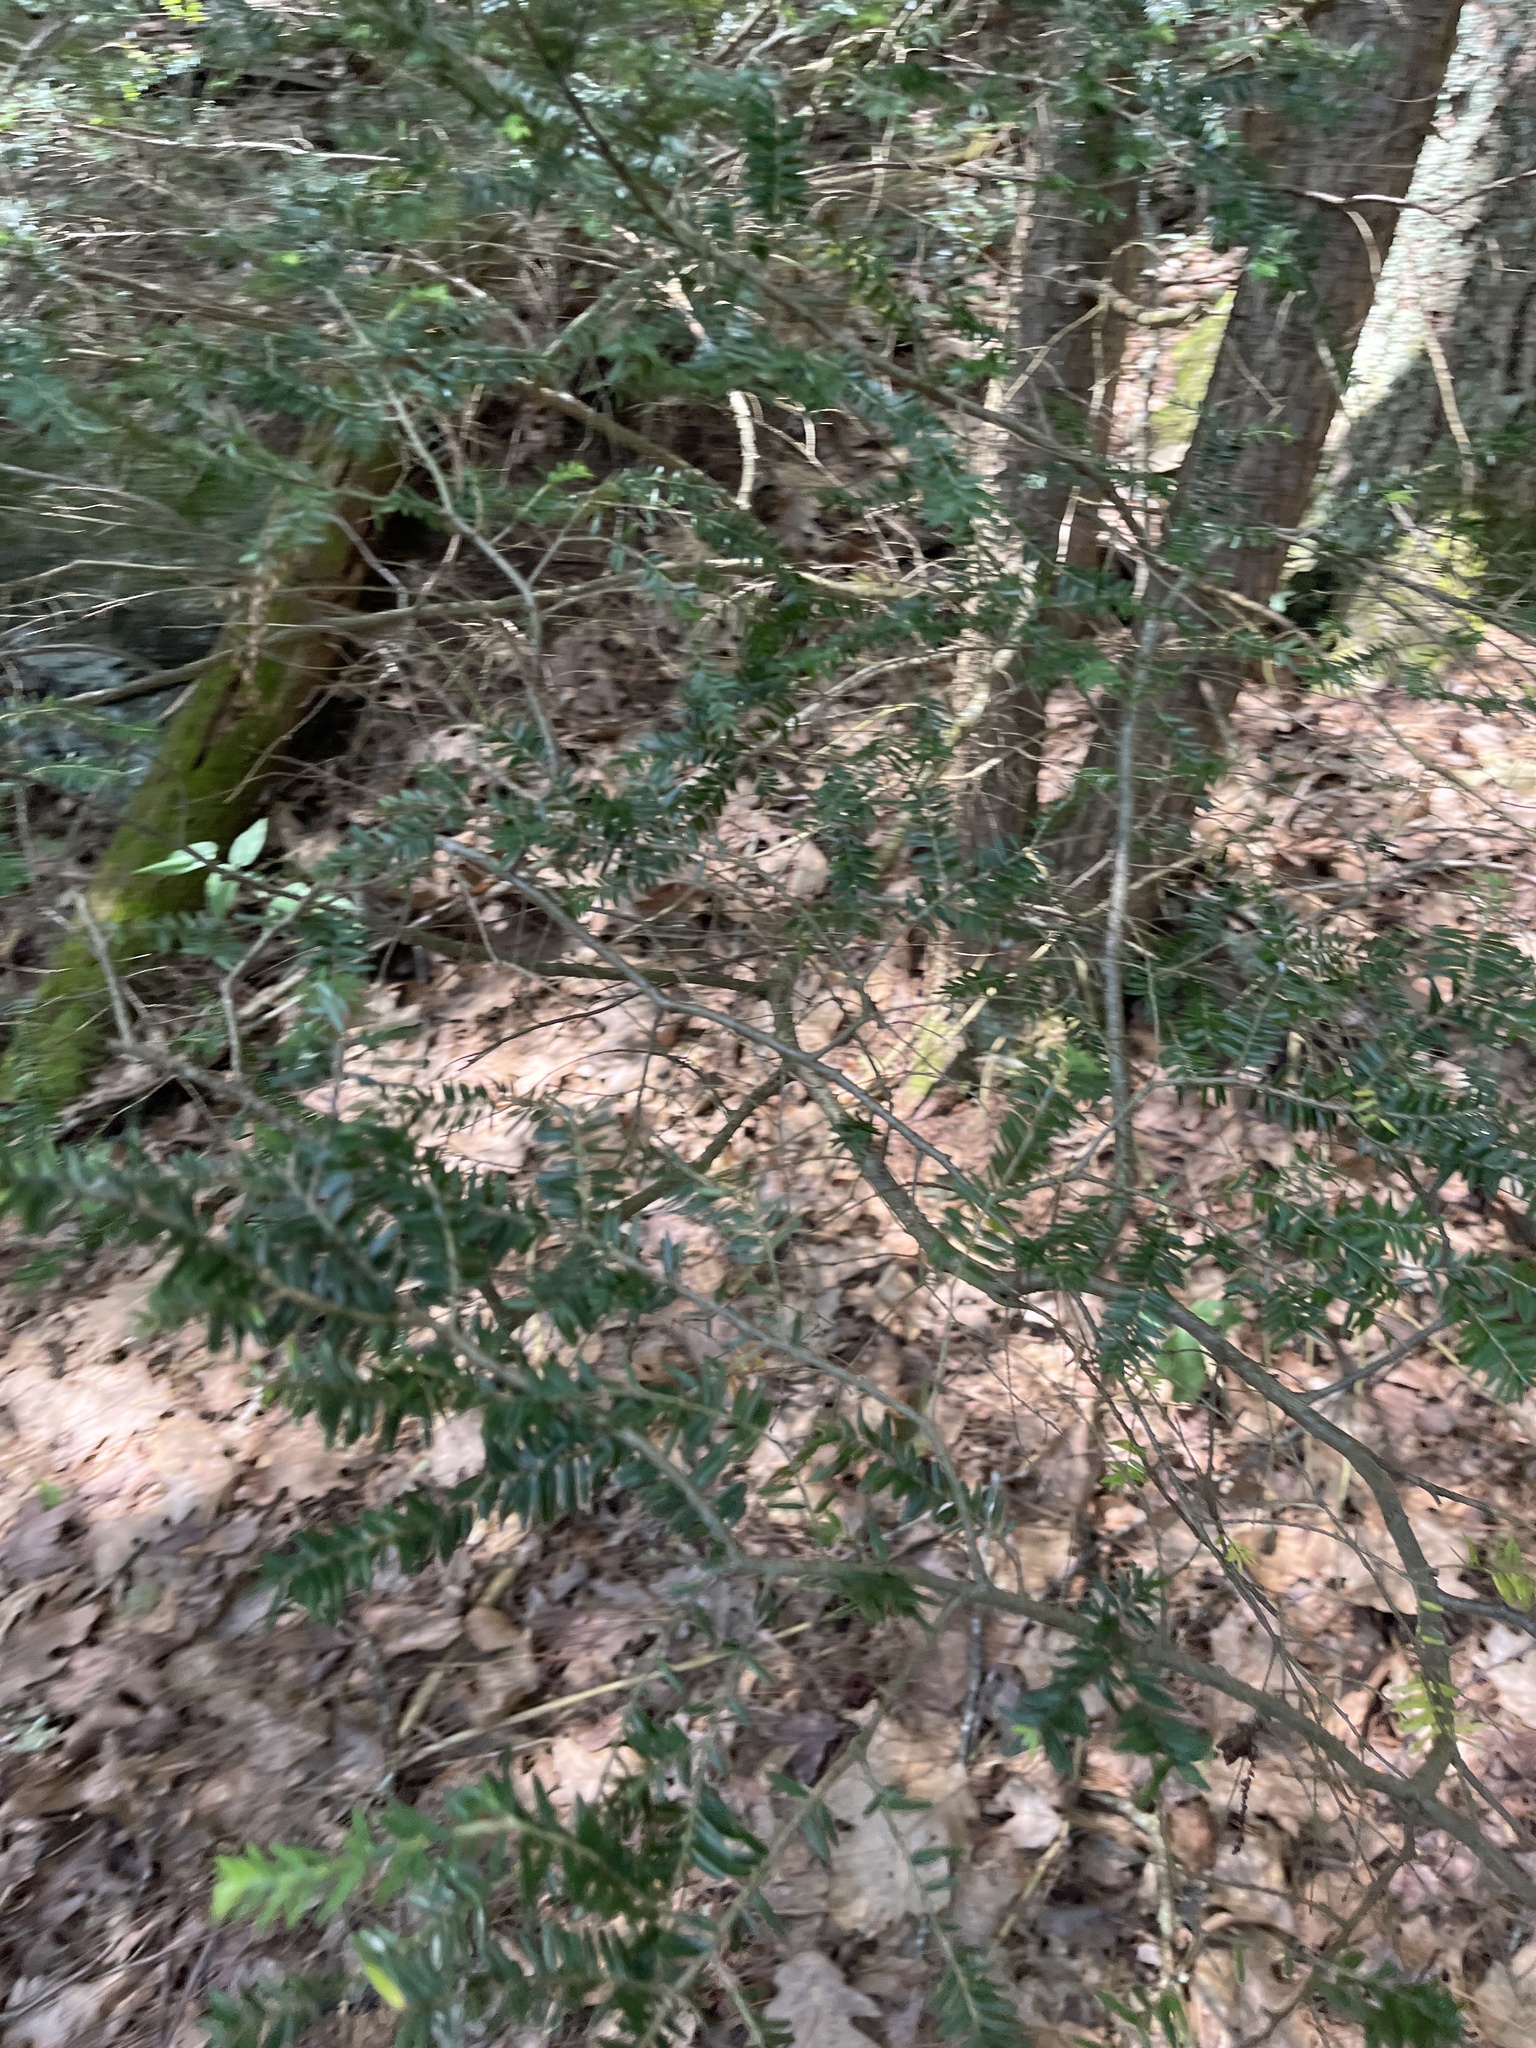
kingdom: Plantae
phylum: Tracheophyta
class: Pinopsida
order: Pinales
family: Pinaceae
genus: Tsuga
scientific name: Tsuga canadensis
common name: Eastern hemlock
